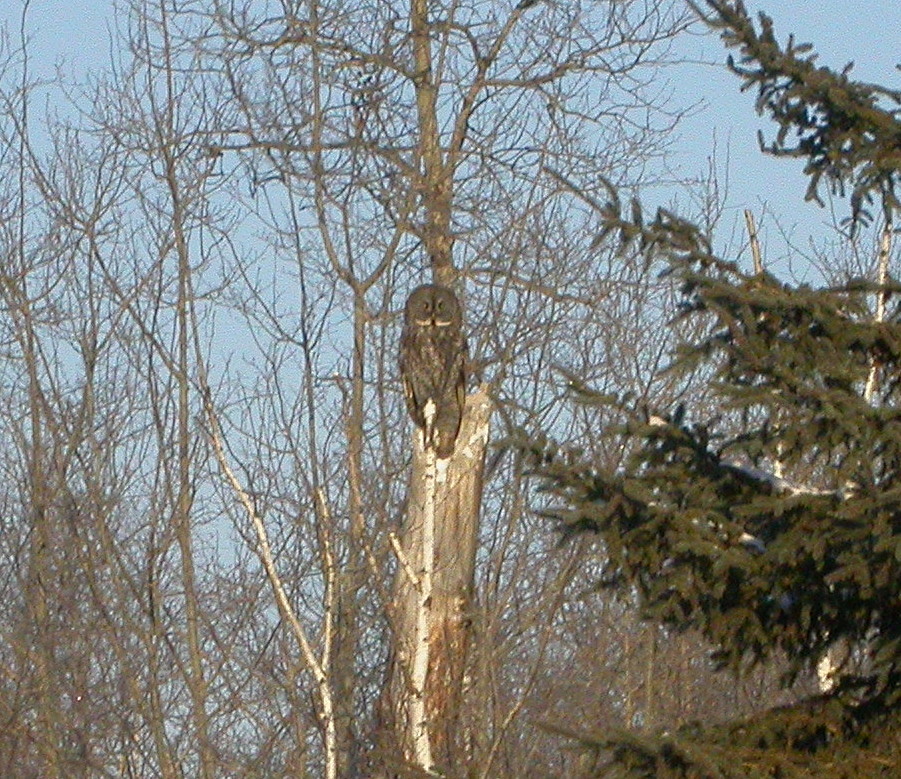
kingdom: Animalia
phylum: Chordata
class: Aves
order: Strigiformes
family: Strigidae
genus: Strix
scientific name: Strix nebulosa
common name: Great grey owl
